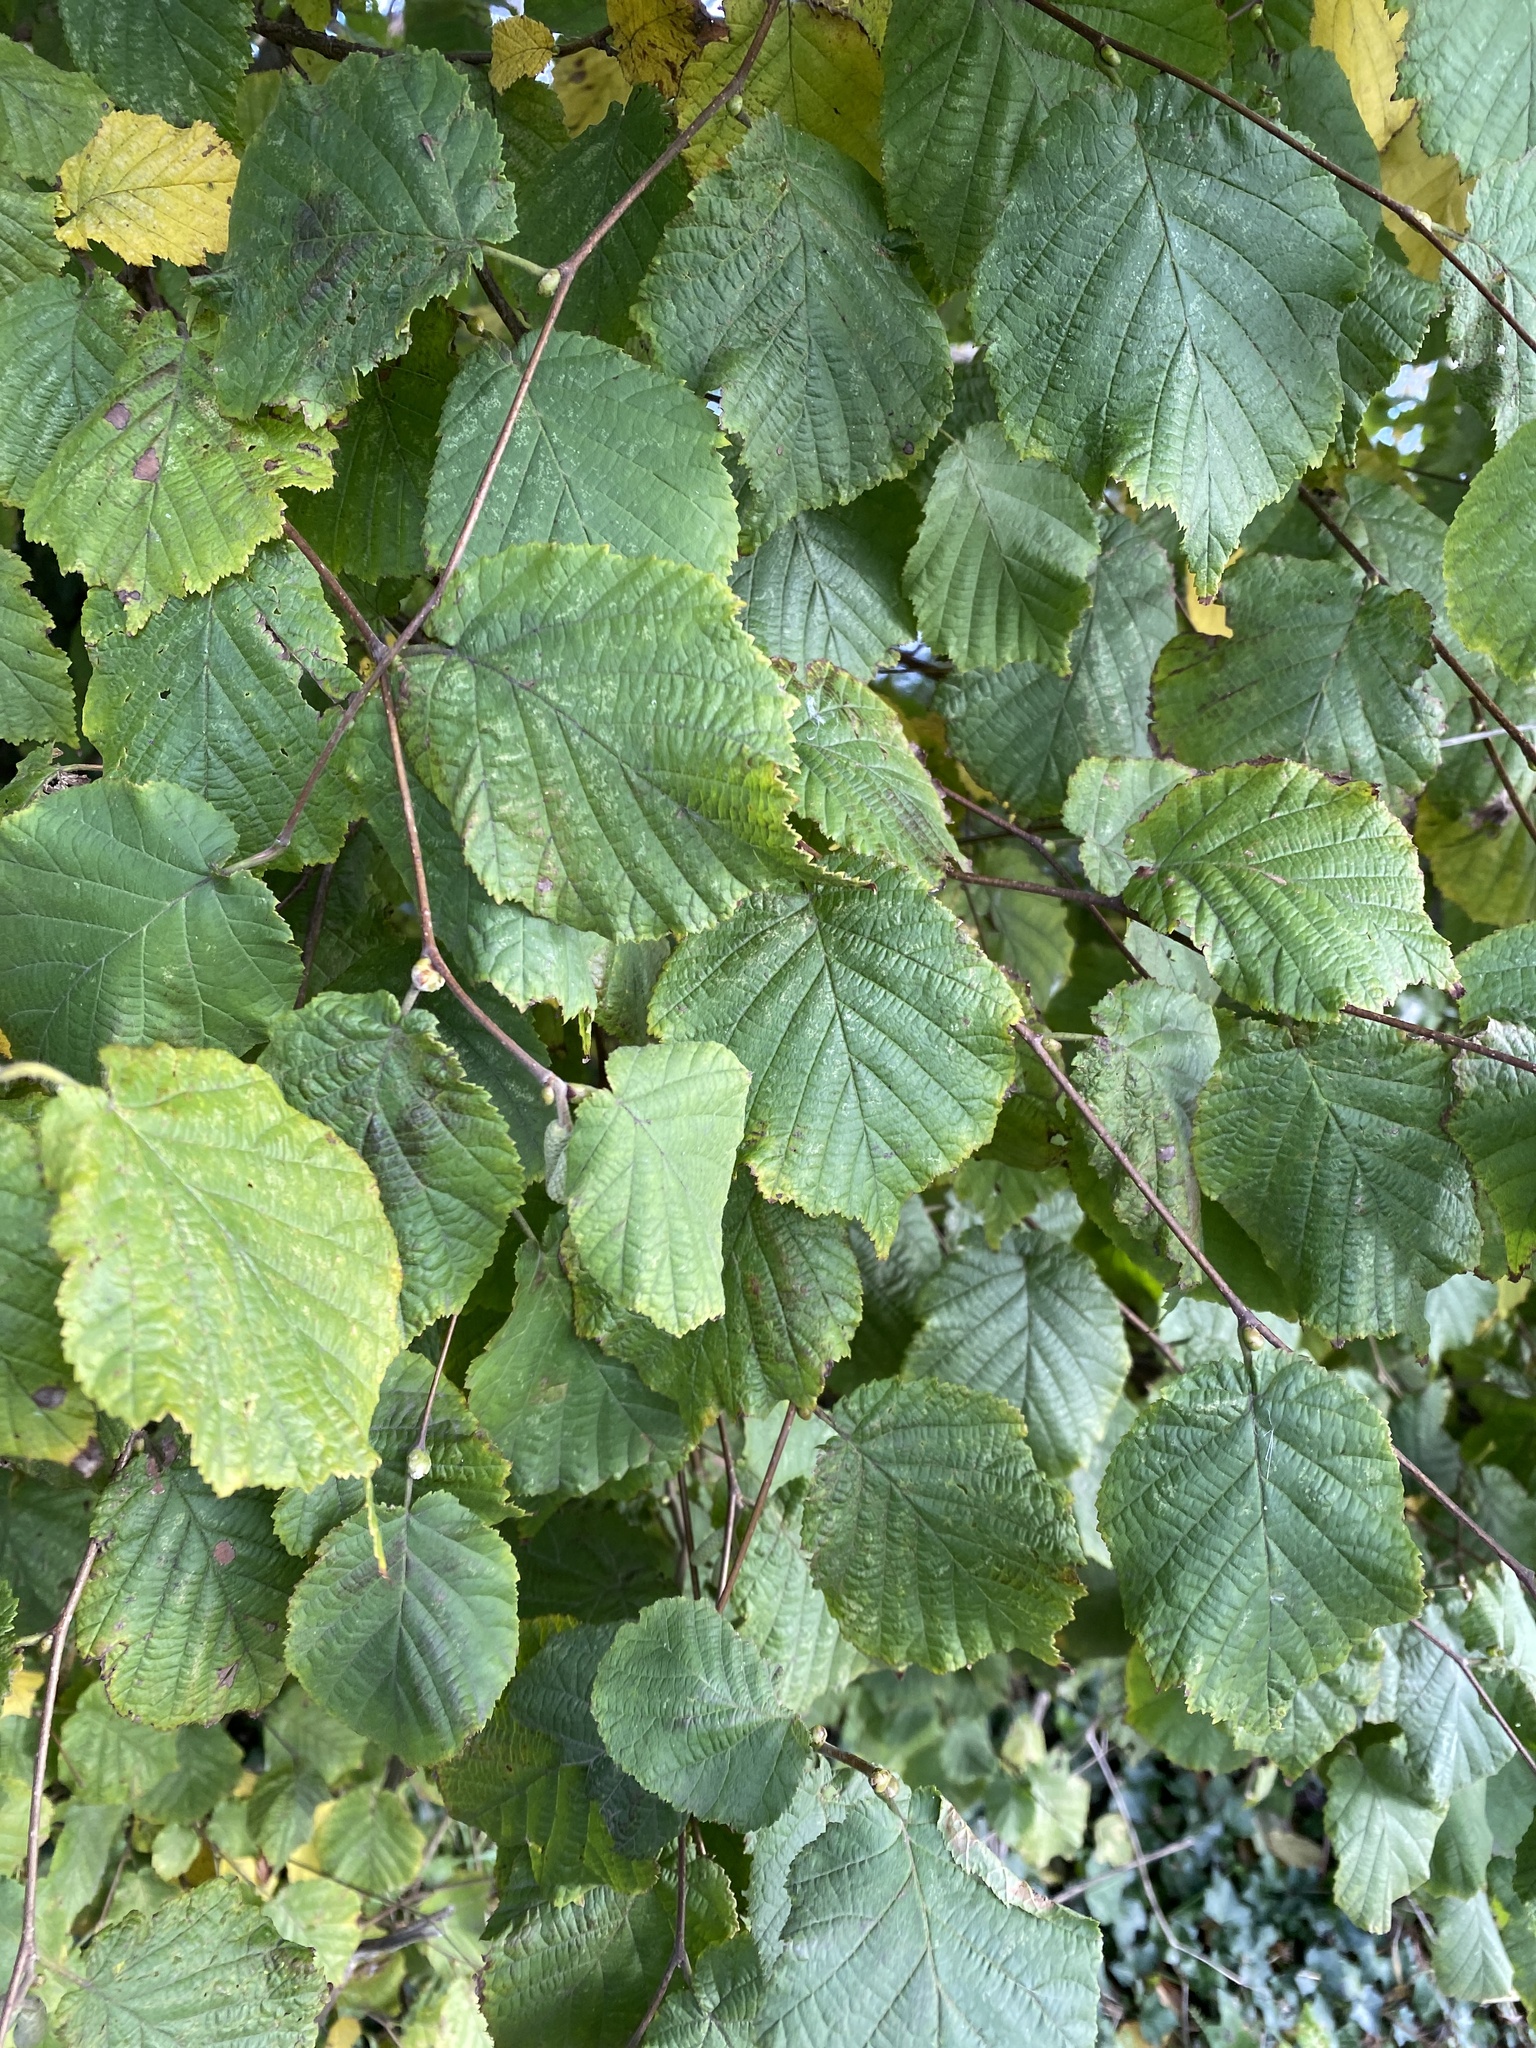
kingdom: Plantae
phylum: Tracheophyta
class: Magnoliopsida
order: Fagales
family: Betulaceae
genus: Corylus
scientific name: Corylus avellana
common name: European hazel
